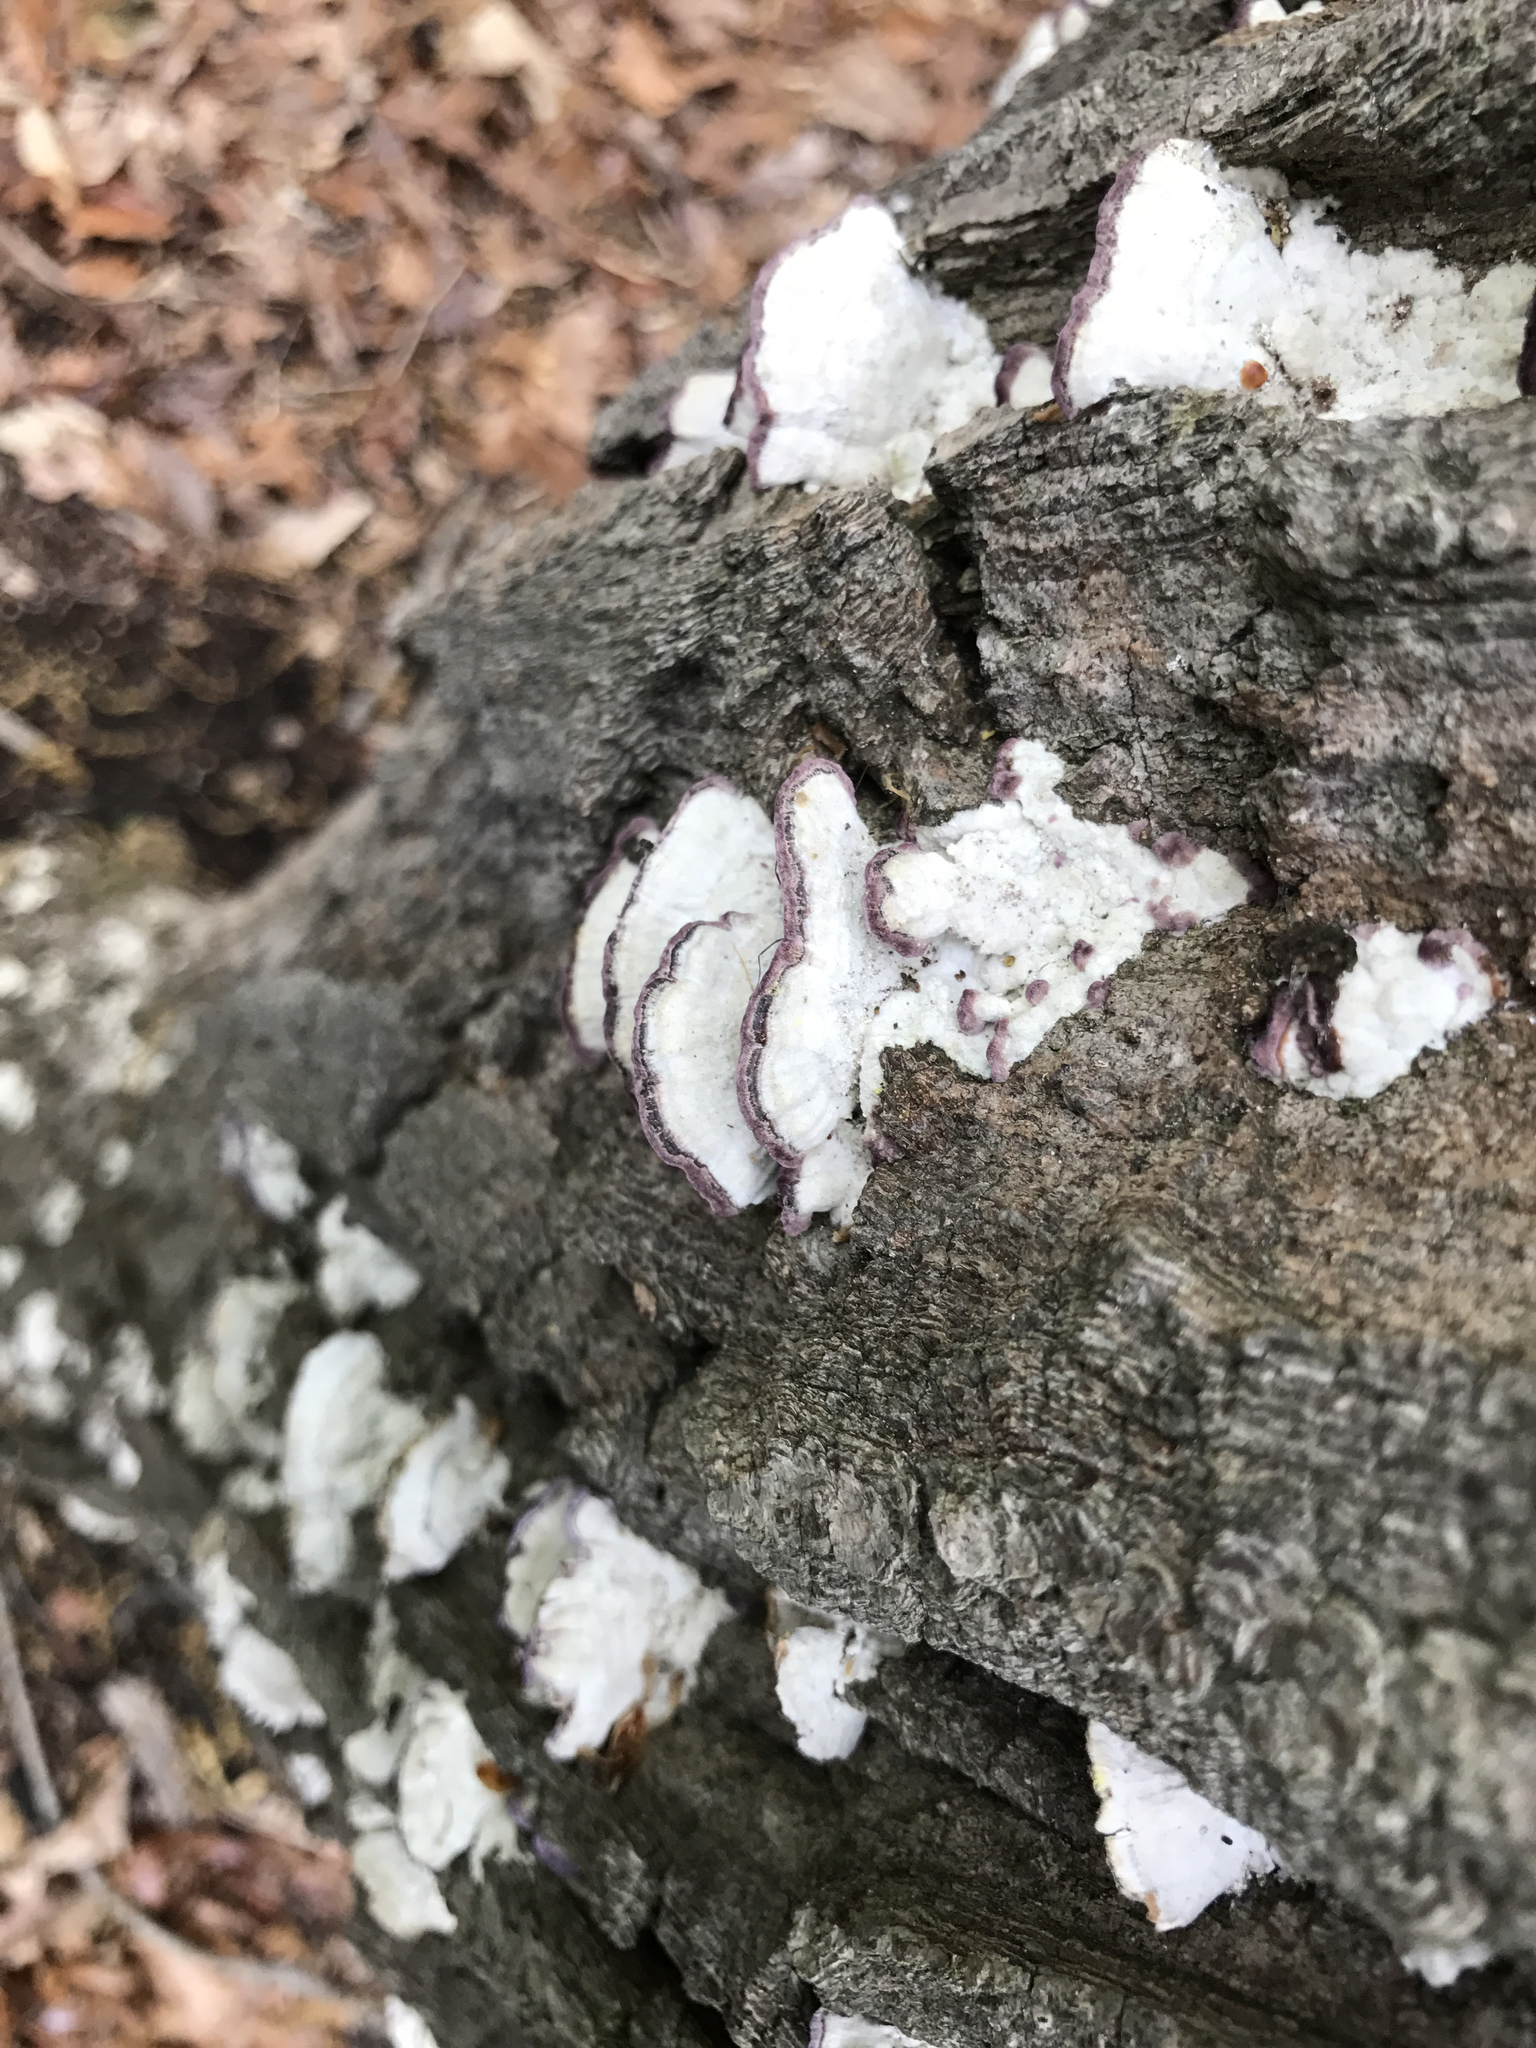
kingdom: Fungi
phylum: Basidiomycota
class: Agaricomycetes
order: Hymenochaetales
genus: Trichaptum
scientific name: Trichaptum biforme
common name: Violet-toothed polypore
